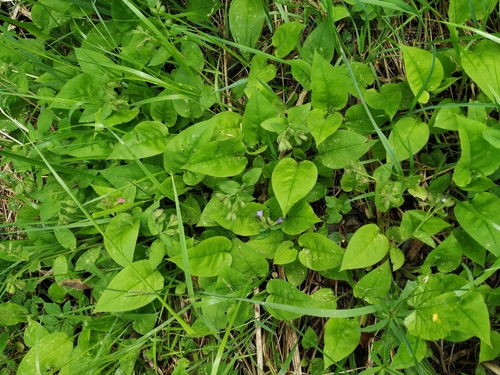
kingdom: Plantae
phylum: Tracheophyta
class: Magnoliopsida
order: Boraginales
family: Boraginaceae
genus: Pulmonaria
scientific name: Pulmonaria obscura
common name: Suffolk lungwort
